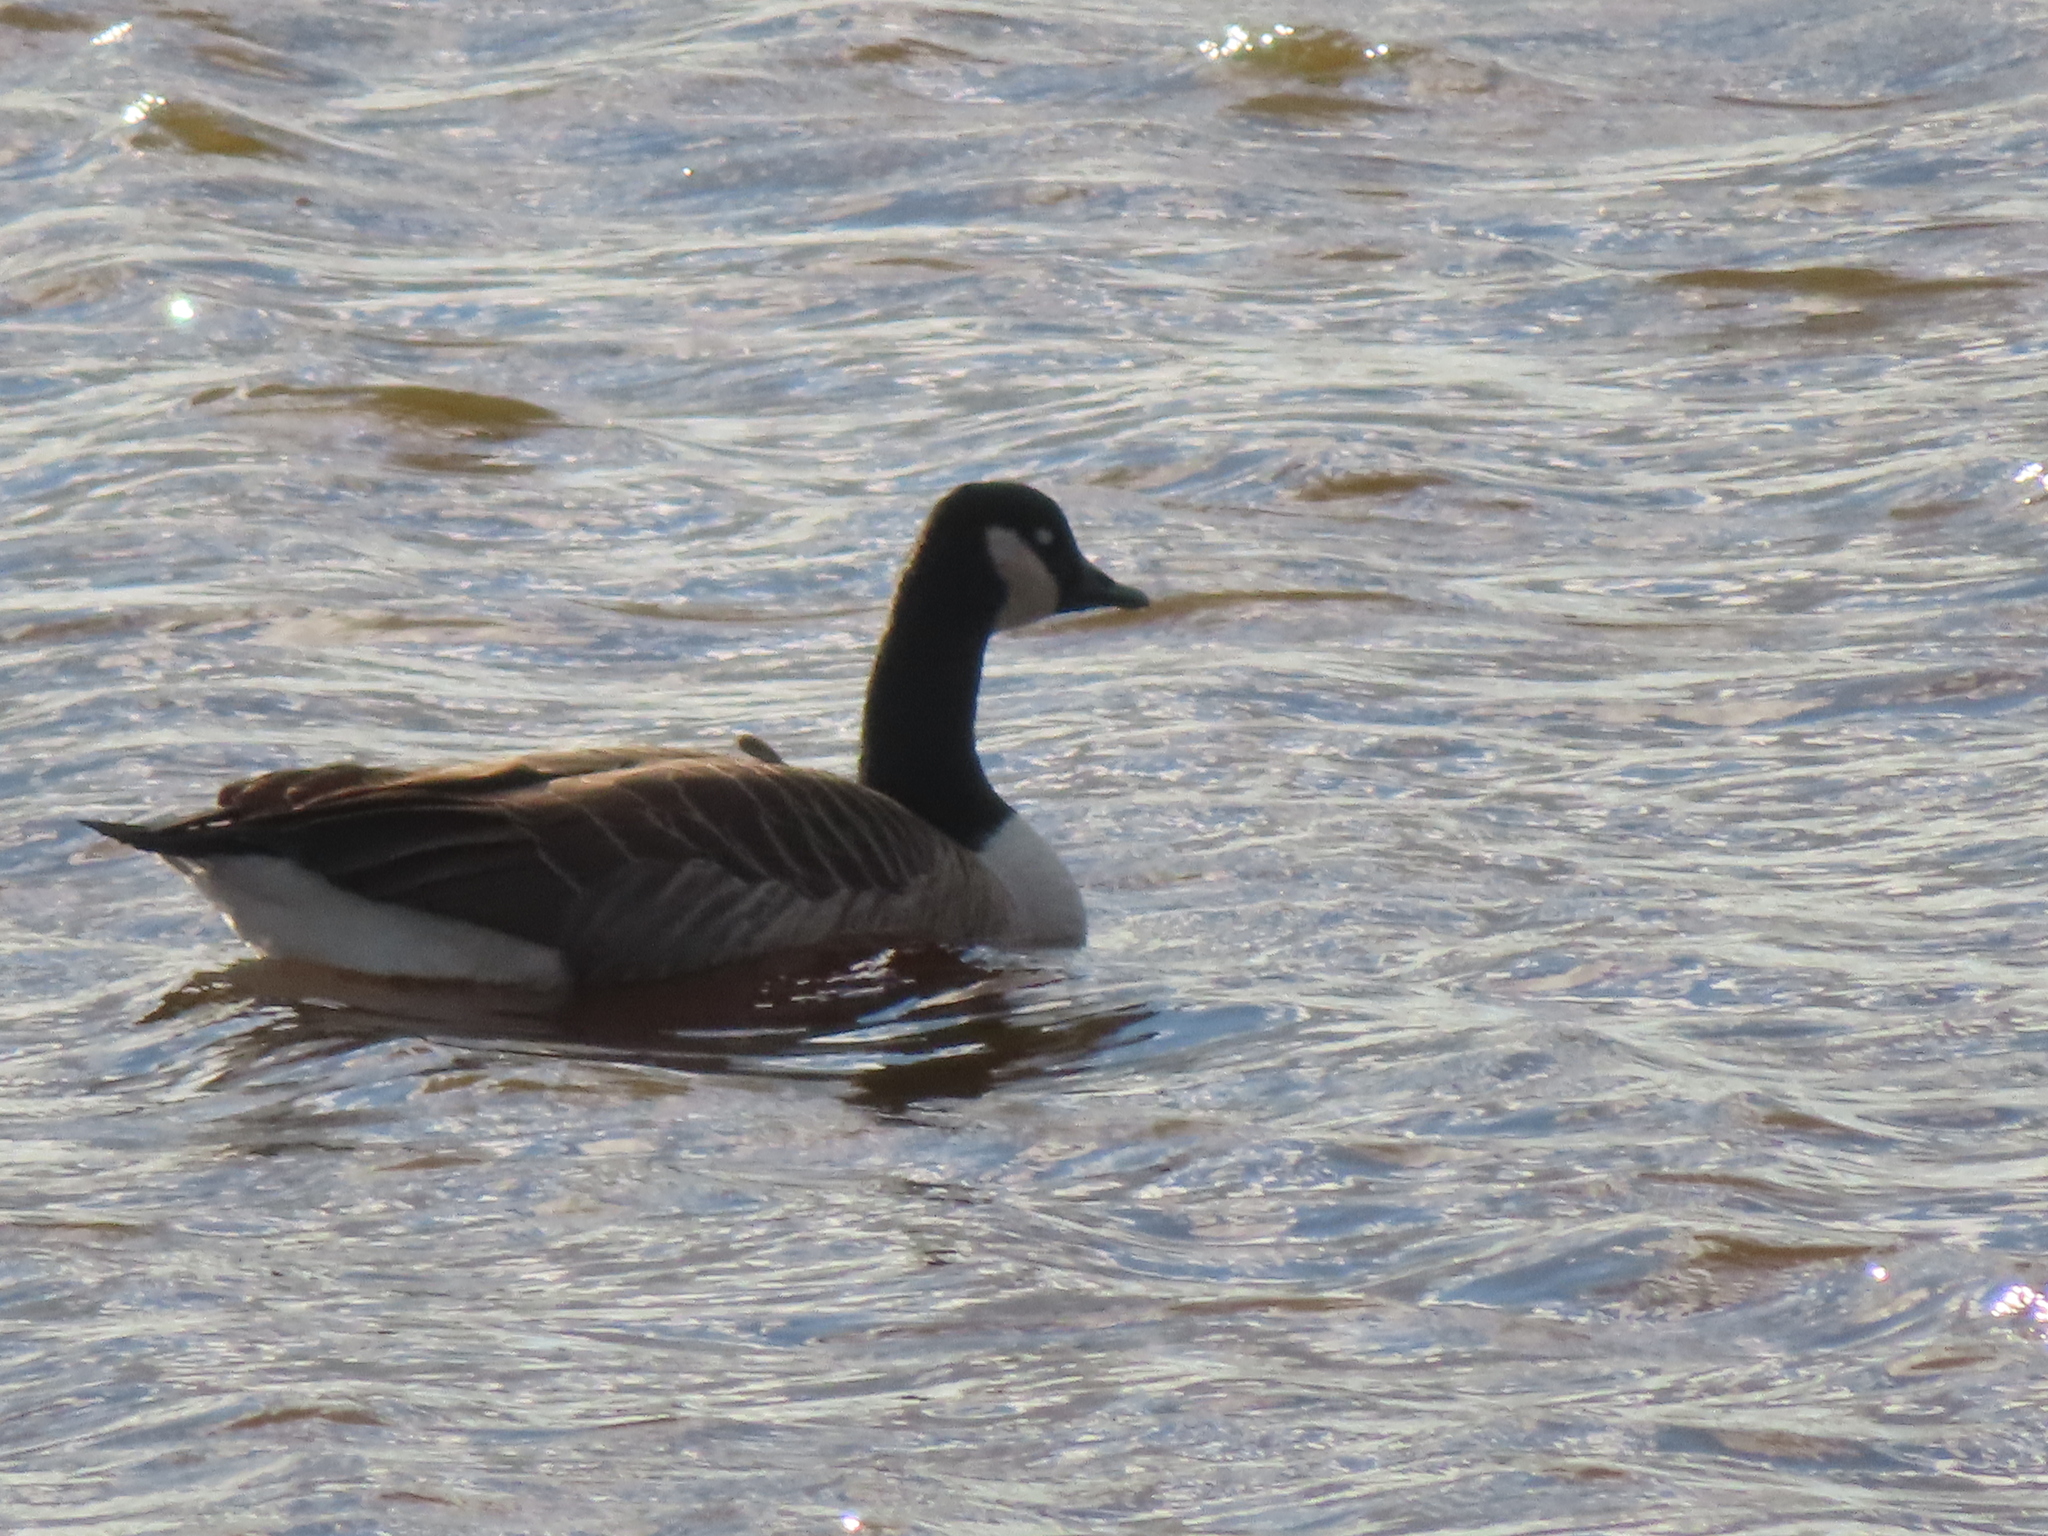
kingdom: Animalia
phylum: Chordata
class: Aves
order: Anseriformes
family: Anatidae
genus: Branta
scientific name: Branta canadensis
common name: Canada goose
